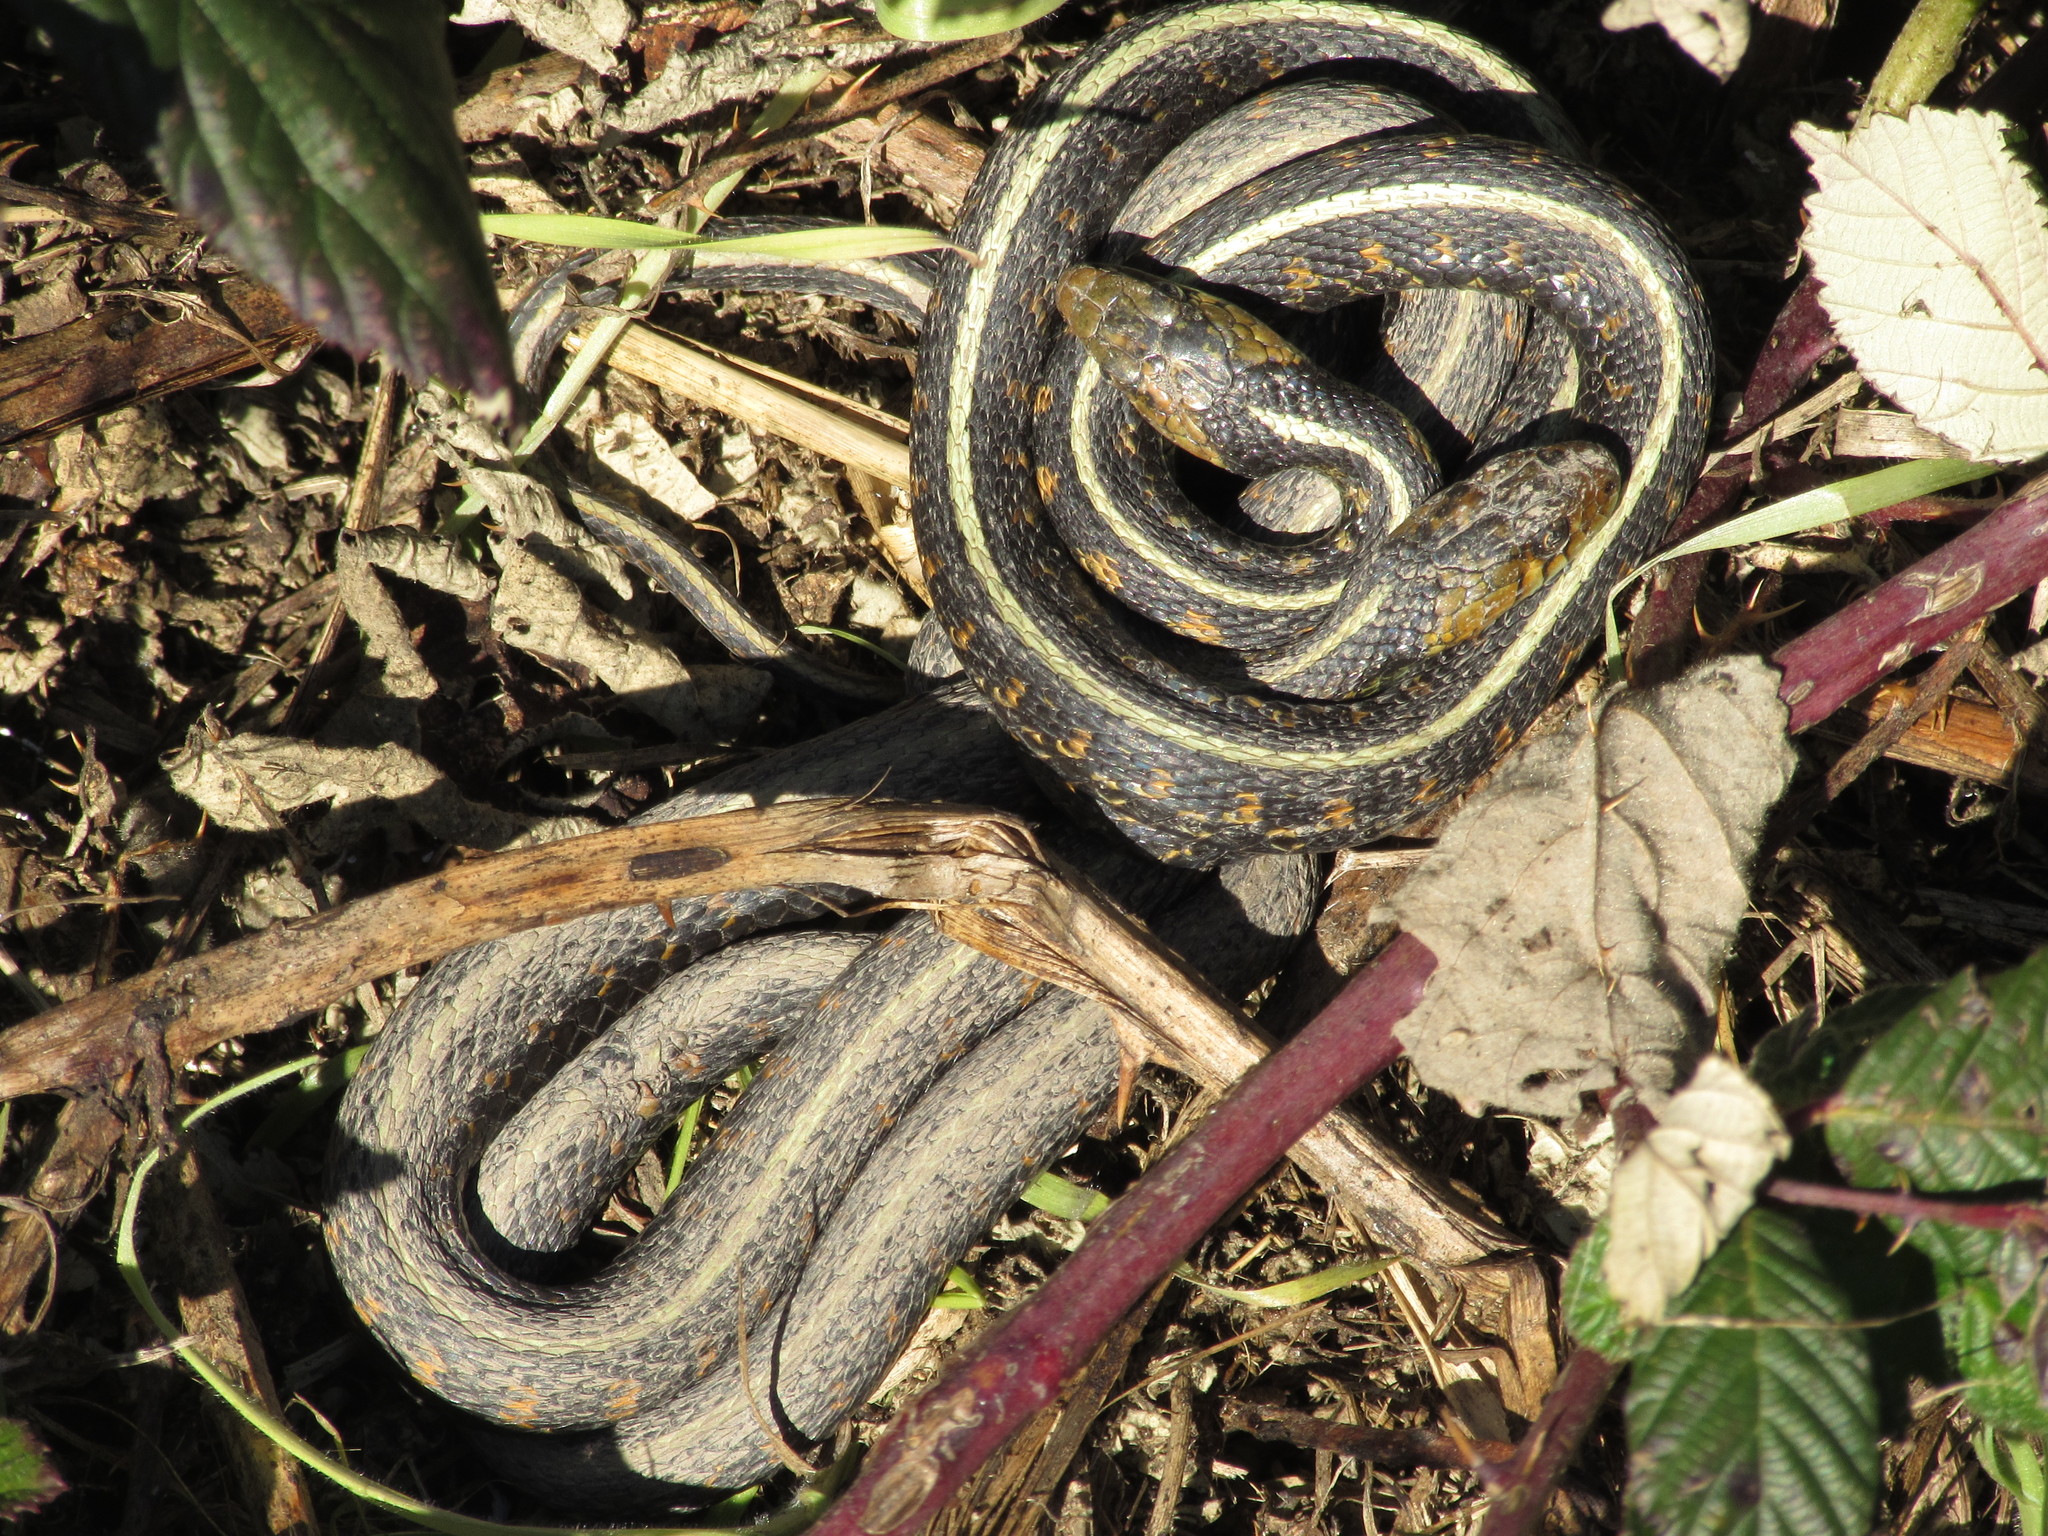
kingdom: Animalia
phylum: Chordata
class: Squamata
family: Colubridae
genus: Thamnophis
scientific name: Thamnophis sirtalis
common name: Common garter snake
